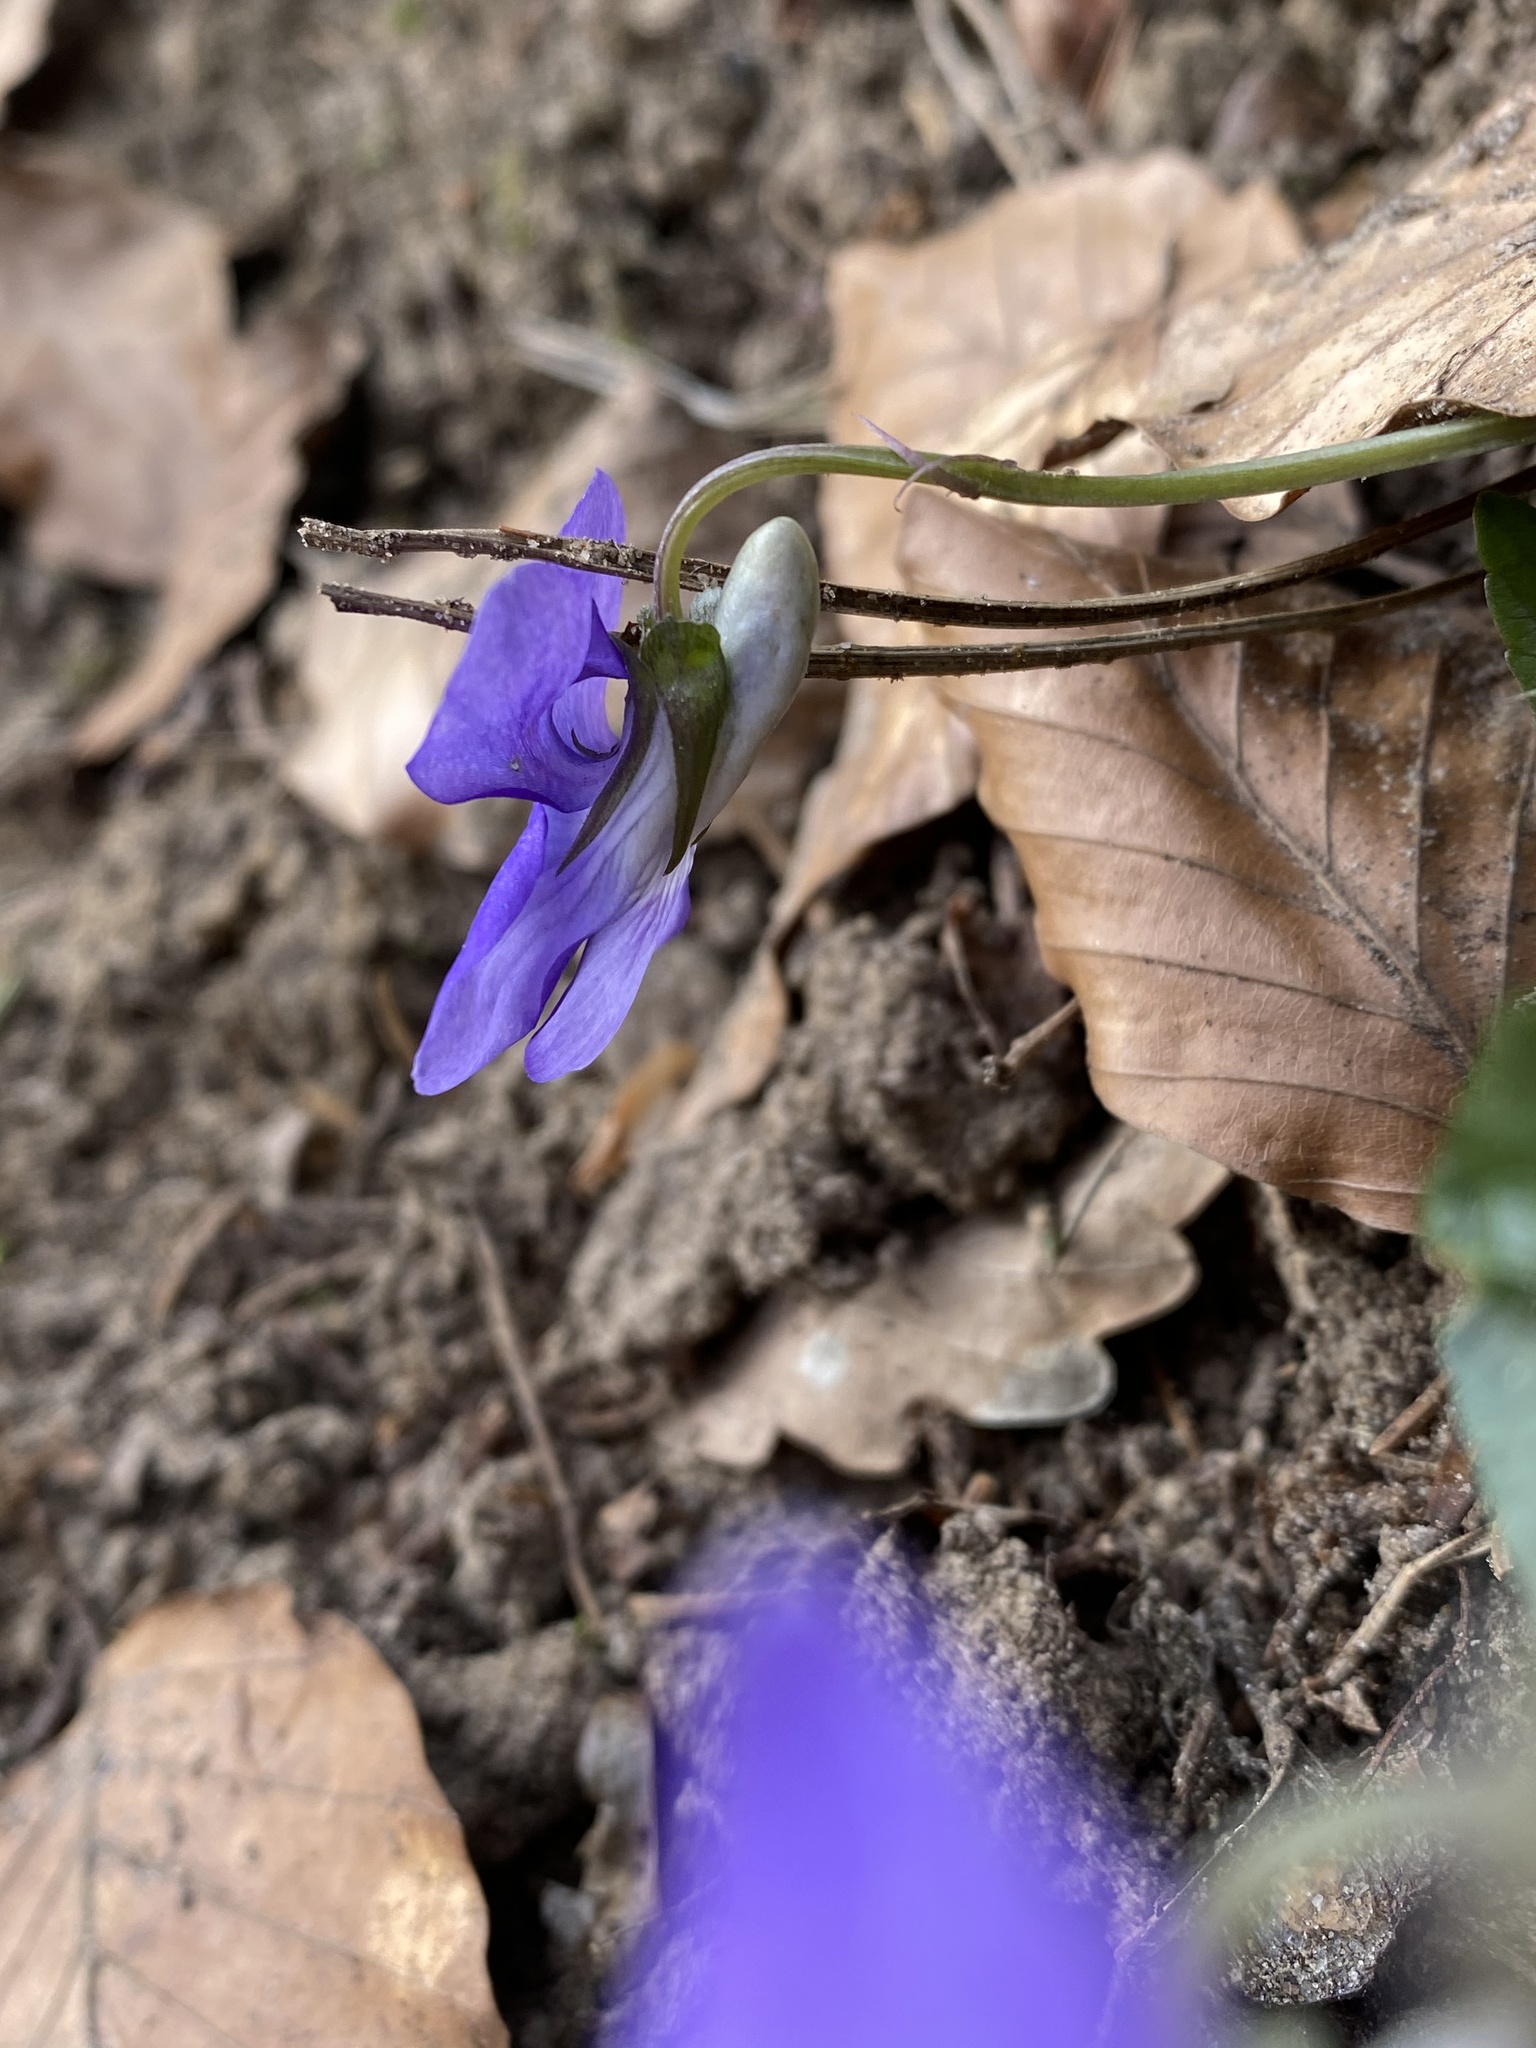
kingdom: Plantae
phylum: Tracheophyta
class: Magnoliopsida
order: Malpighiales
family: Violaceae
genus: Viola
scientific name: Viola riviniana
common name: Common dog-violet
